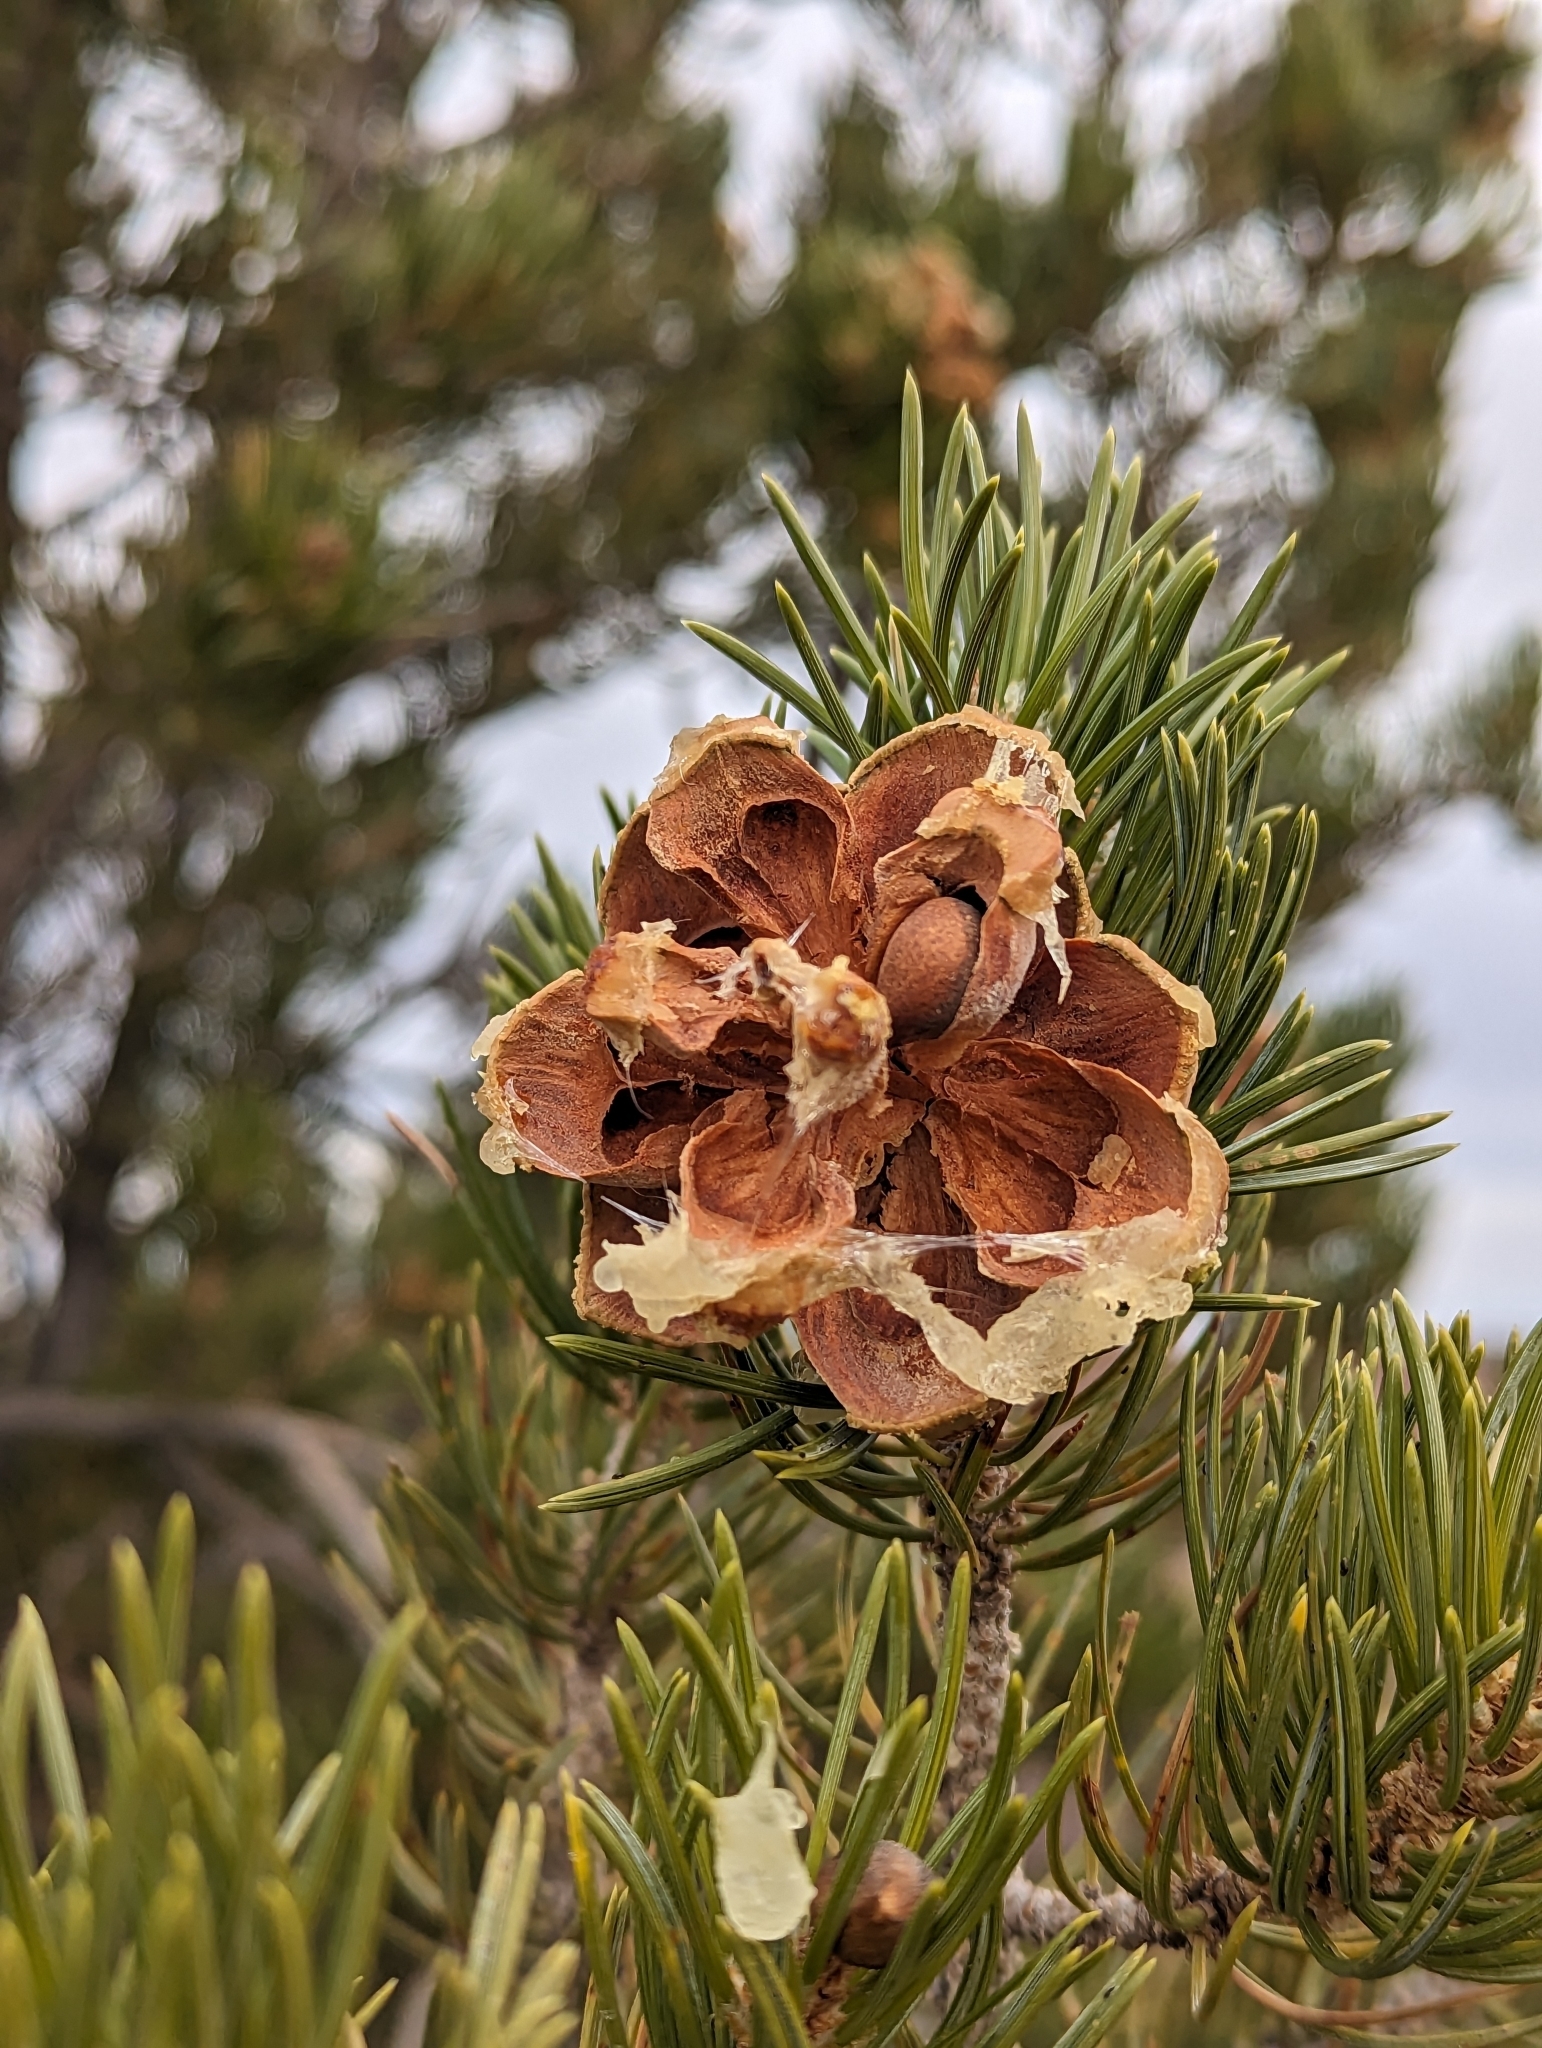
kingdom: Plantae
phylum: Tracheophyta
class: Pinopsida
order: Pinales
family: Pinaceae
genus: Pinus
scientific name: Pinus edulis
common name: Colorado pinyon
